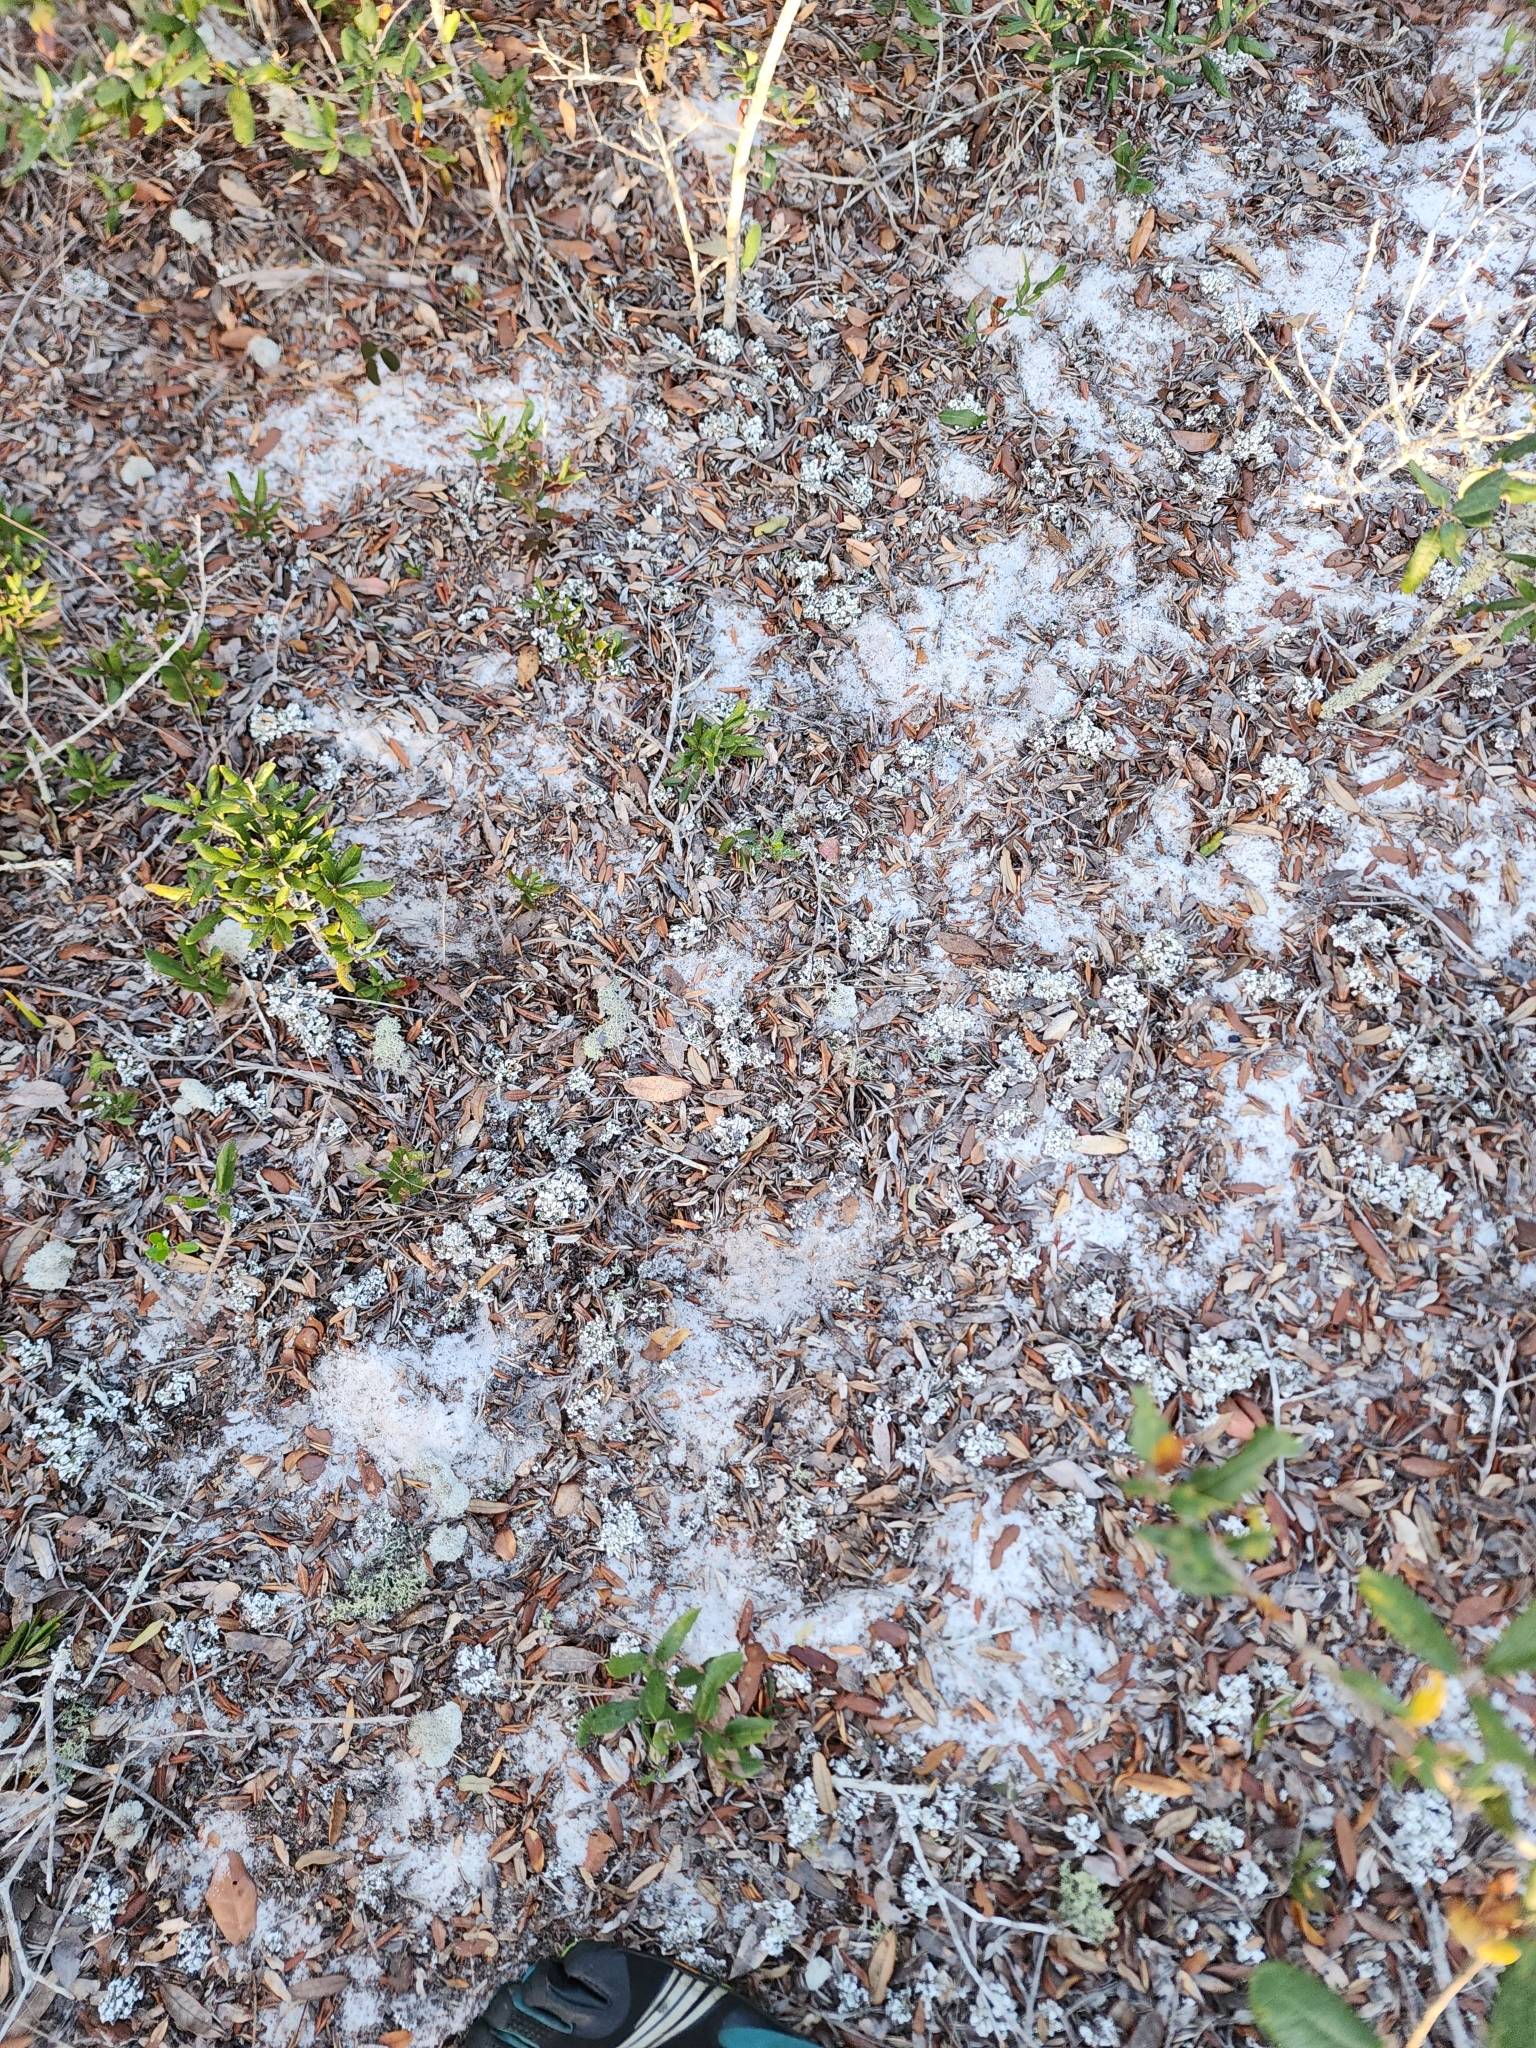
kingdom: Fungi
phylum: Ascomycota
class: Lecanoromycetes
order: Lecanorales
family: Cladoniaceae
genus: Cladonia
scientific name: Cladonia prostrata
